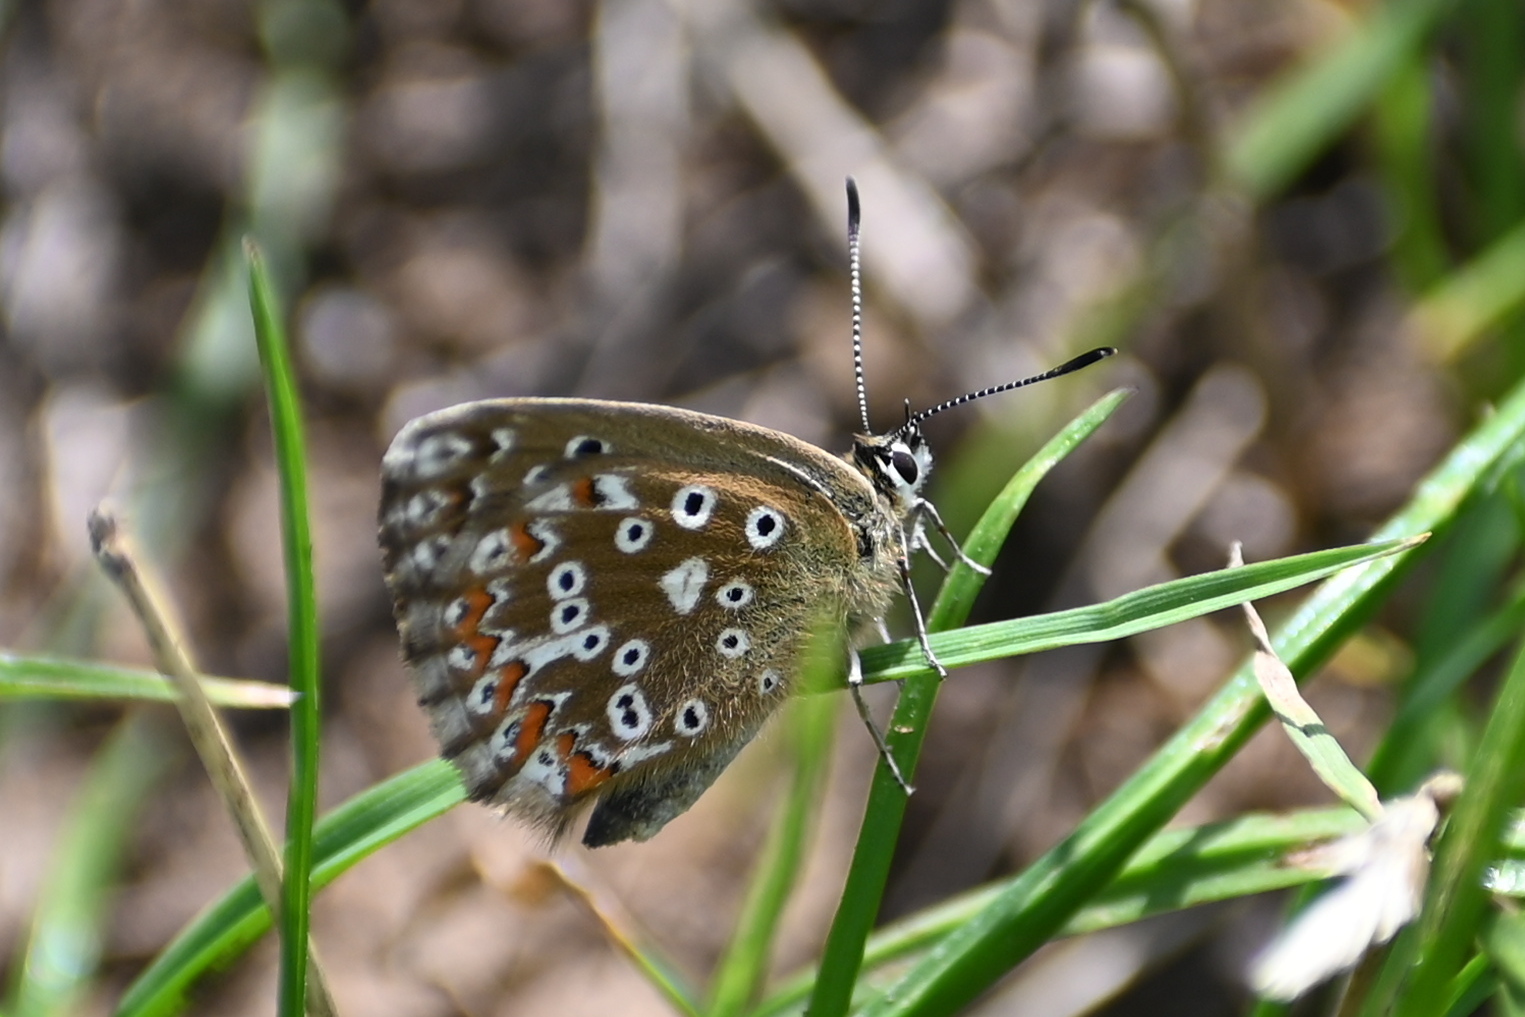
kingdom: Animalia
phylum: Arthropoda
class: Insecta
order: Lepidoptera
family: Lycaenidae
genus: Lysandra
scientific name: Lysandra coridon
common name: Chalkhill blue
